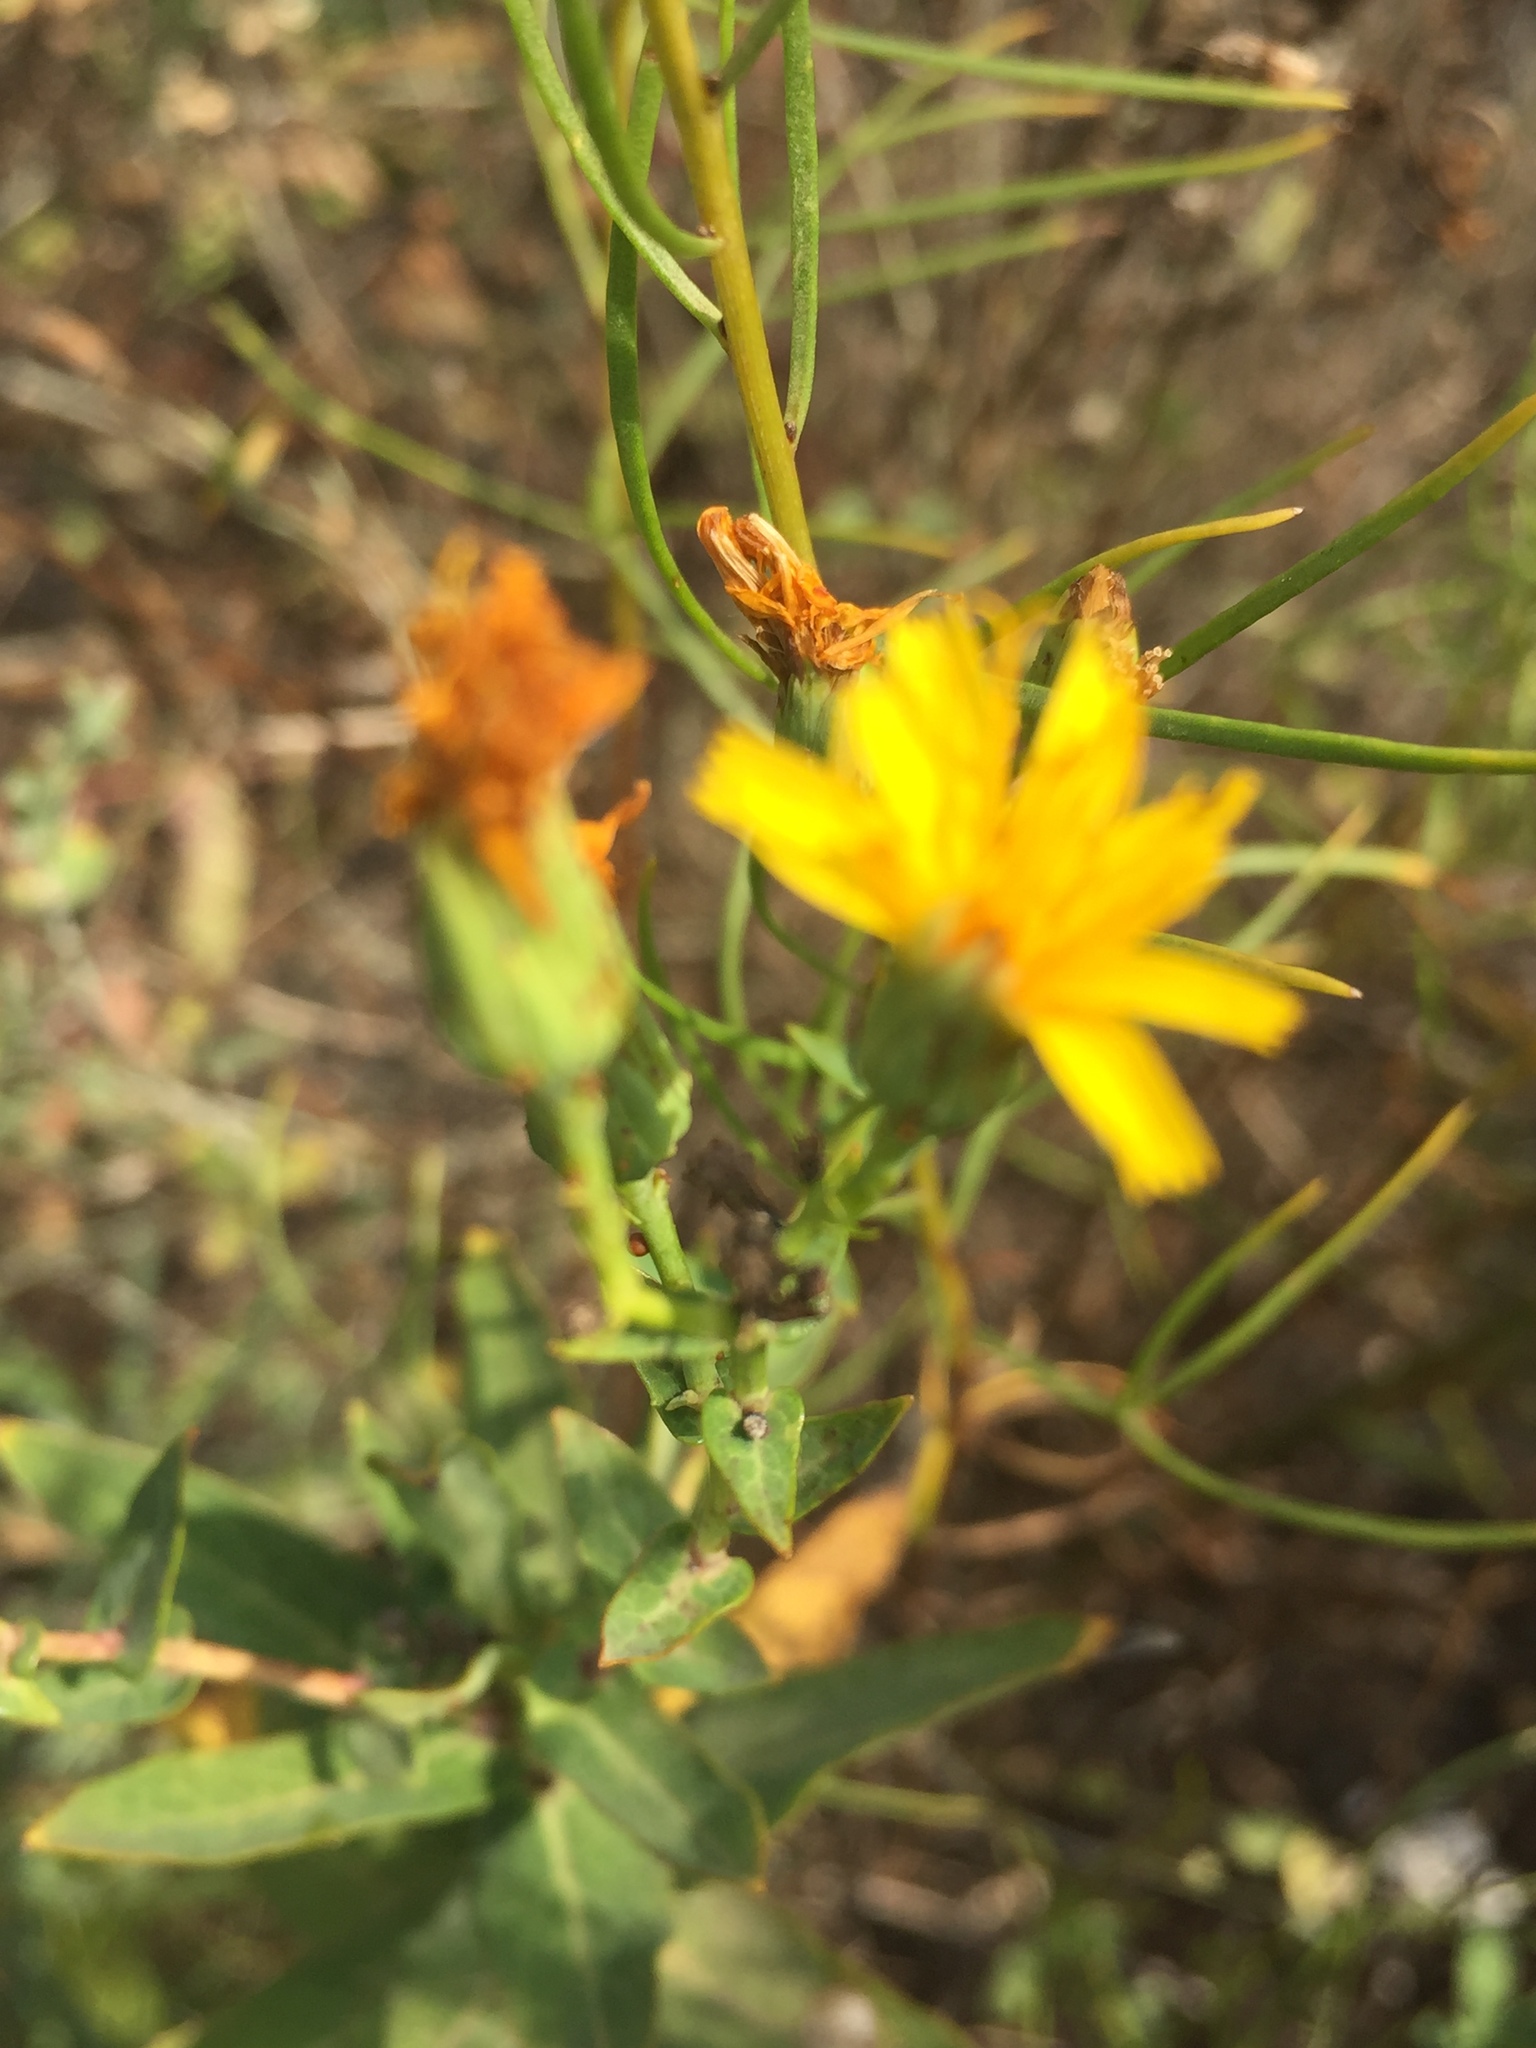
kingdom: Plantae
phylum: Tracheophyta
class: Magnoliopsida
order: Asterales
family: Asteraceae
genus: Hieracium
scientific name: Hieracium umbellatum
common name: Northern hawkweed
